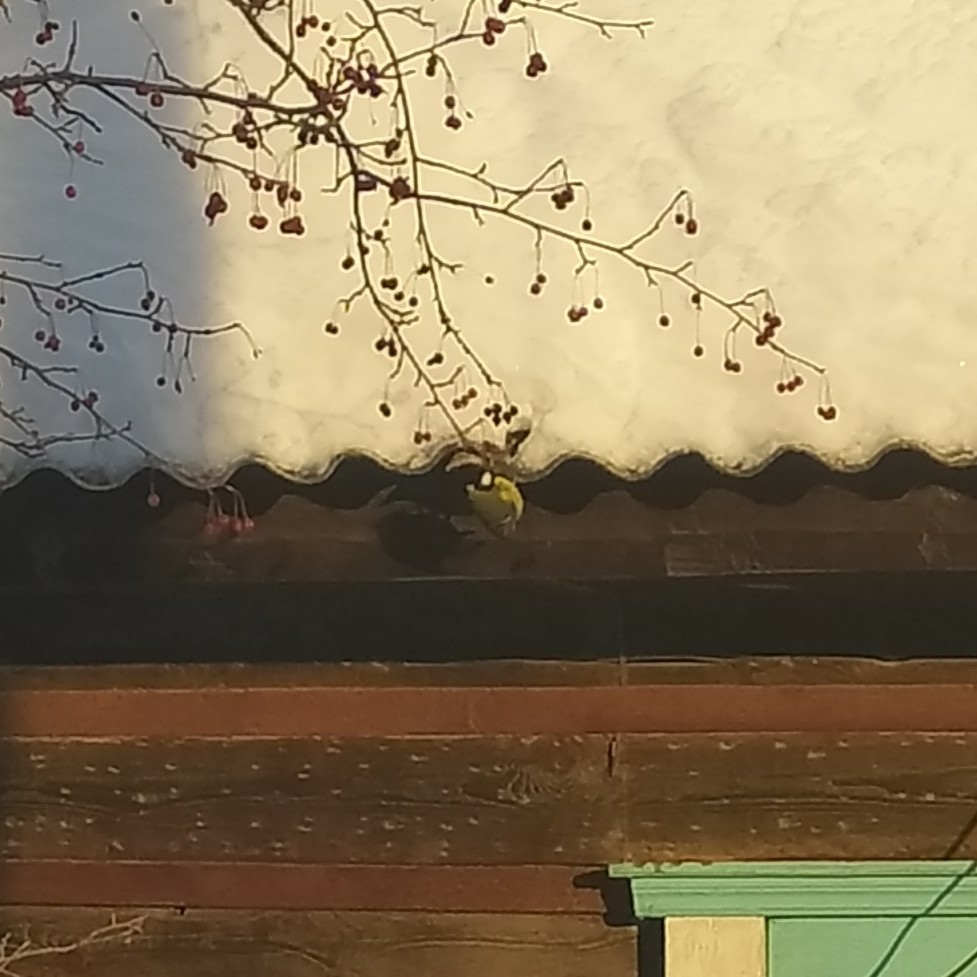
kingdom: Animalia
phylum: Chordata
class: Aves
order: Passeriformes
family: Paridae
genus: Parus
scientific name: Parus major
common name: Great tit
